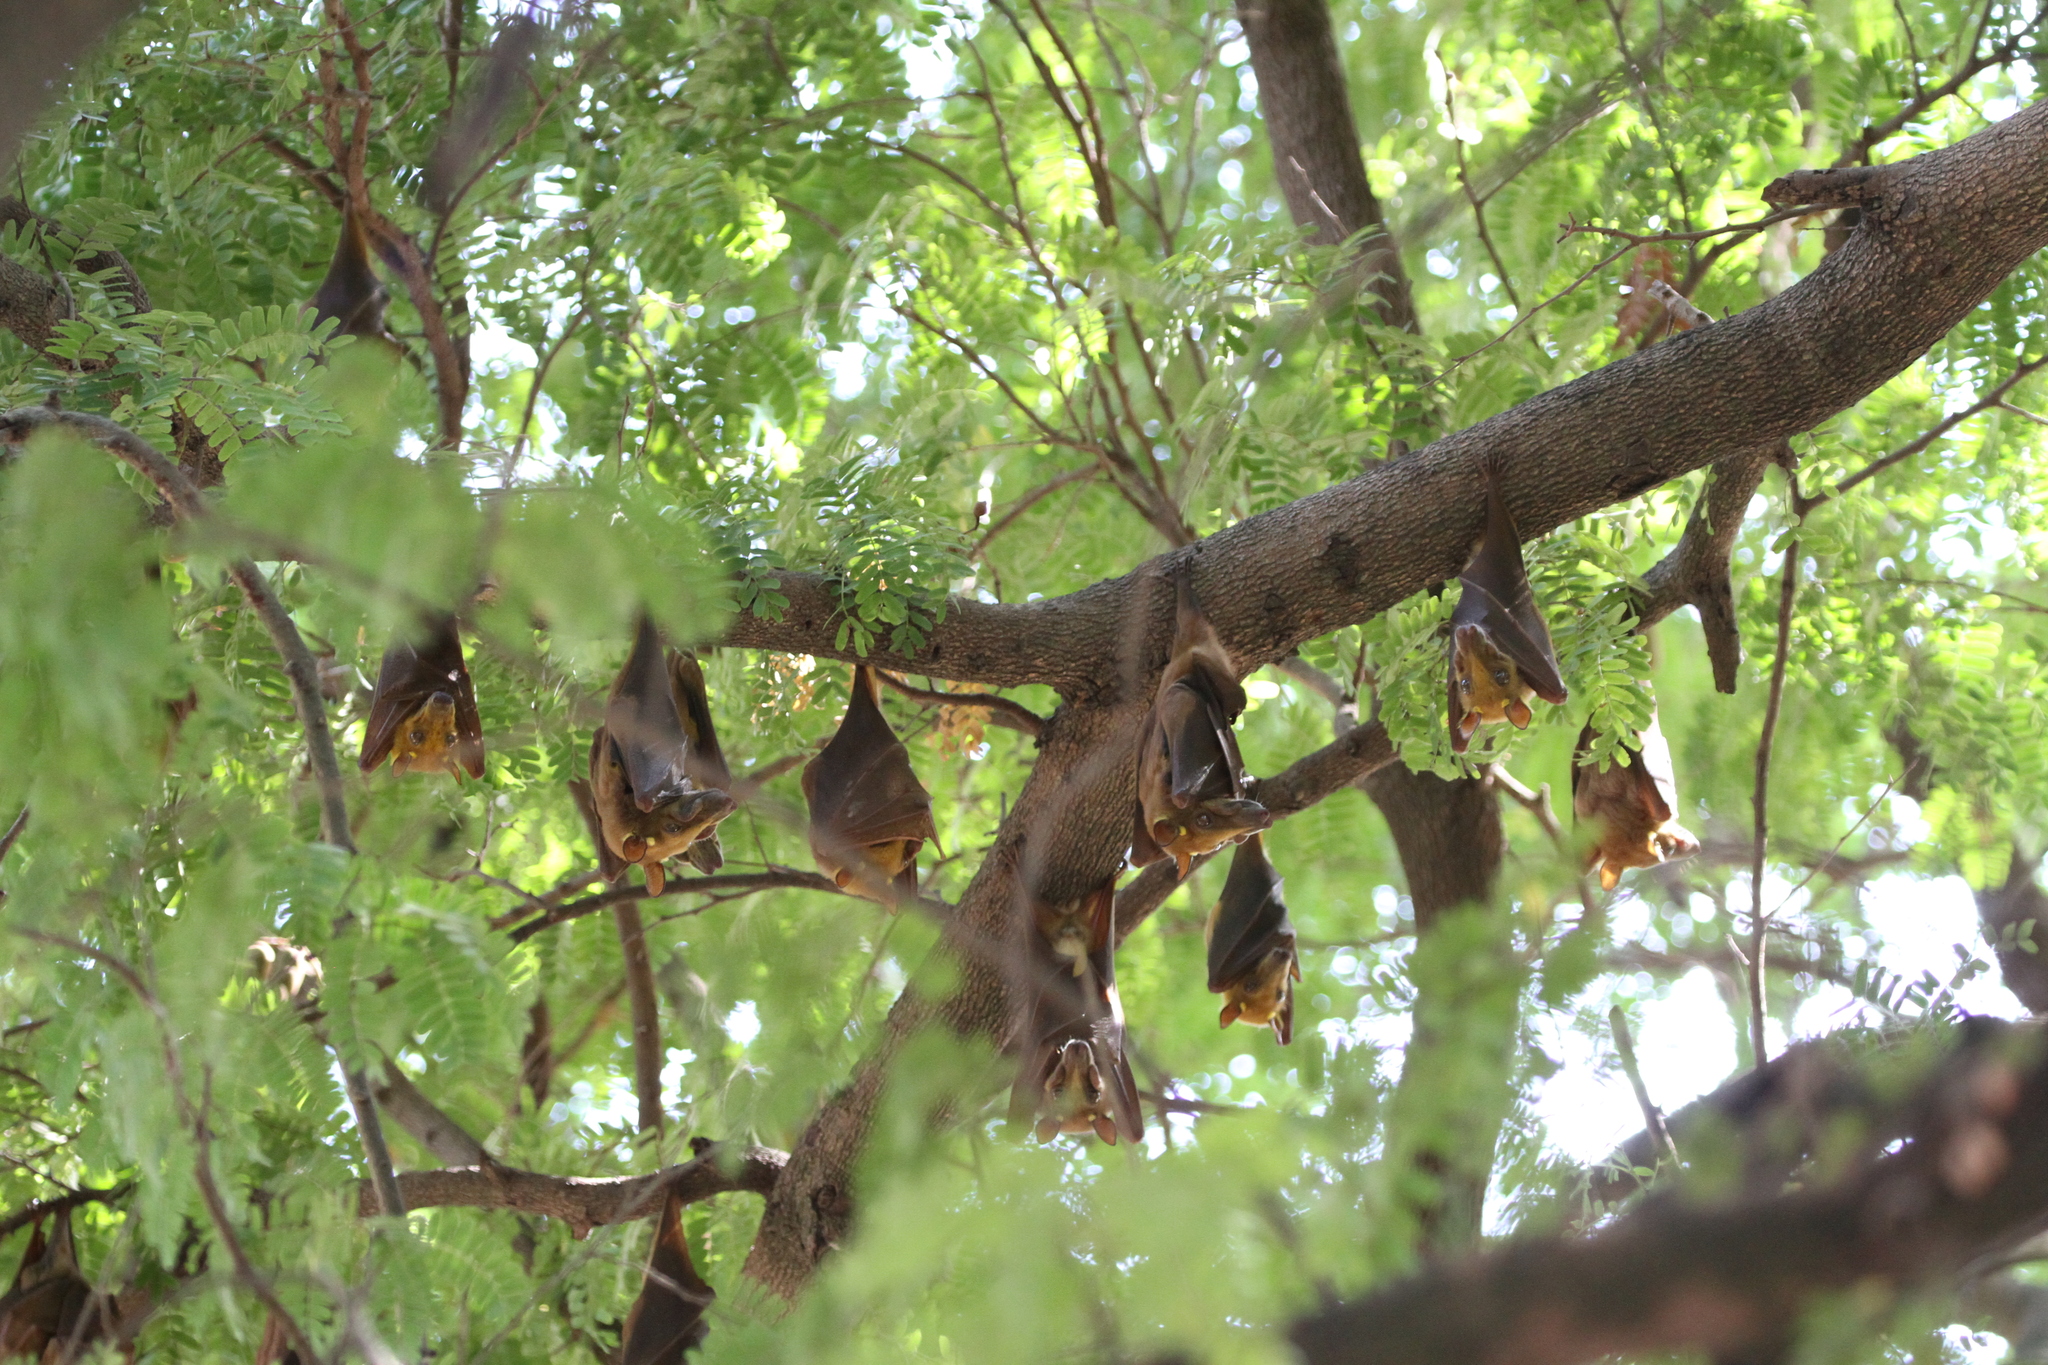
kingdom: Animalia
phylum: Chordata
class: Mammalia
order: Chiroptera
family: Pteropodidae
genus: Epomophorus
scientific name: Epomophorus gambianus
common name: Gambian epauletted fruit bat
